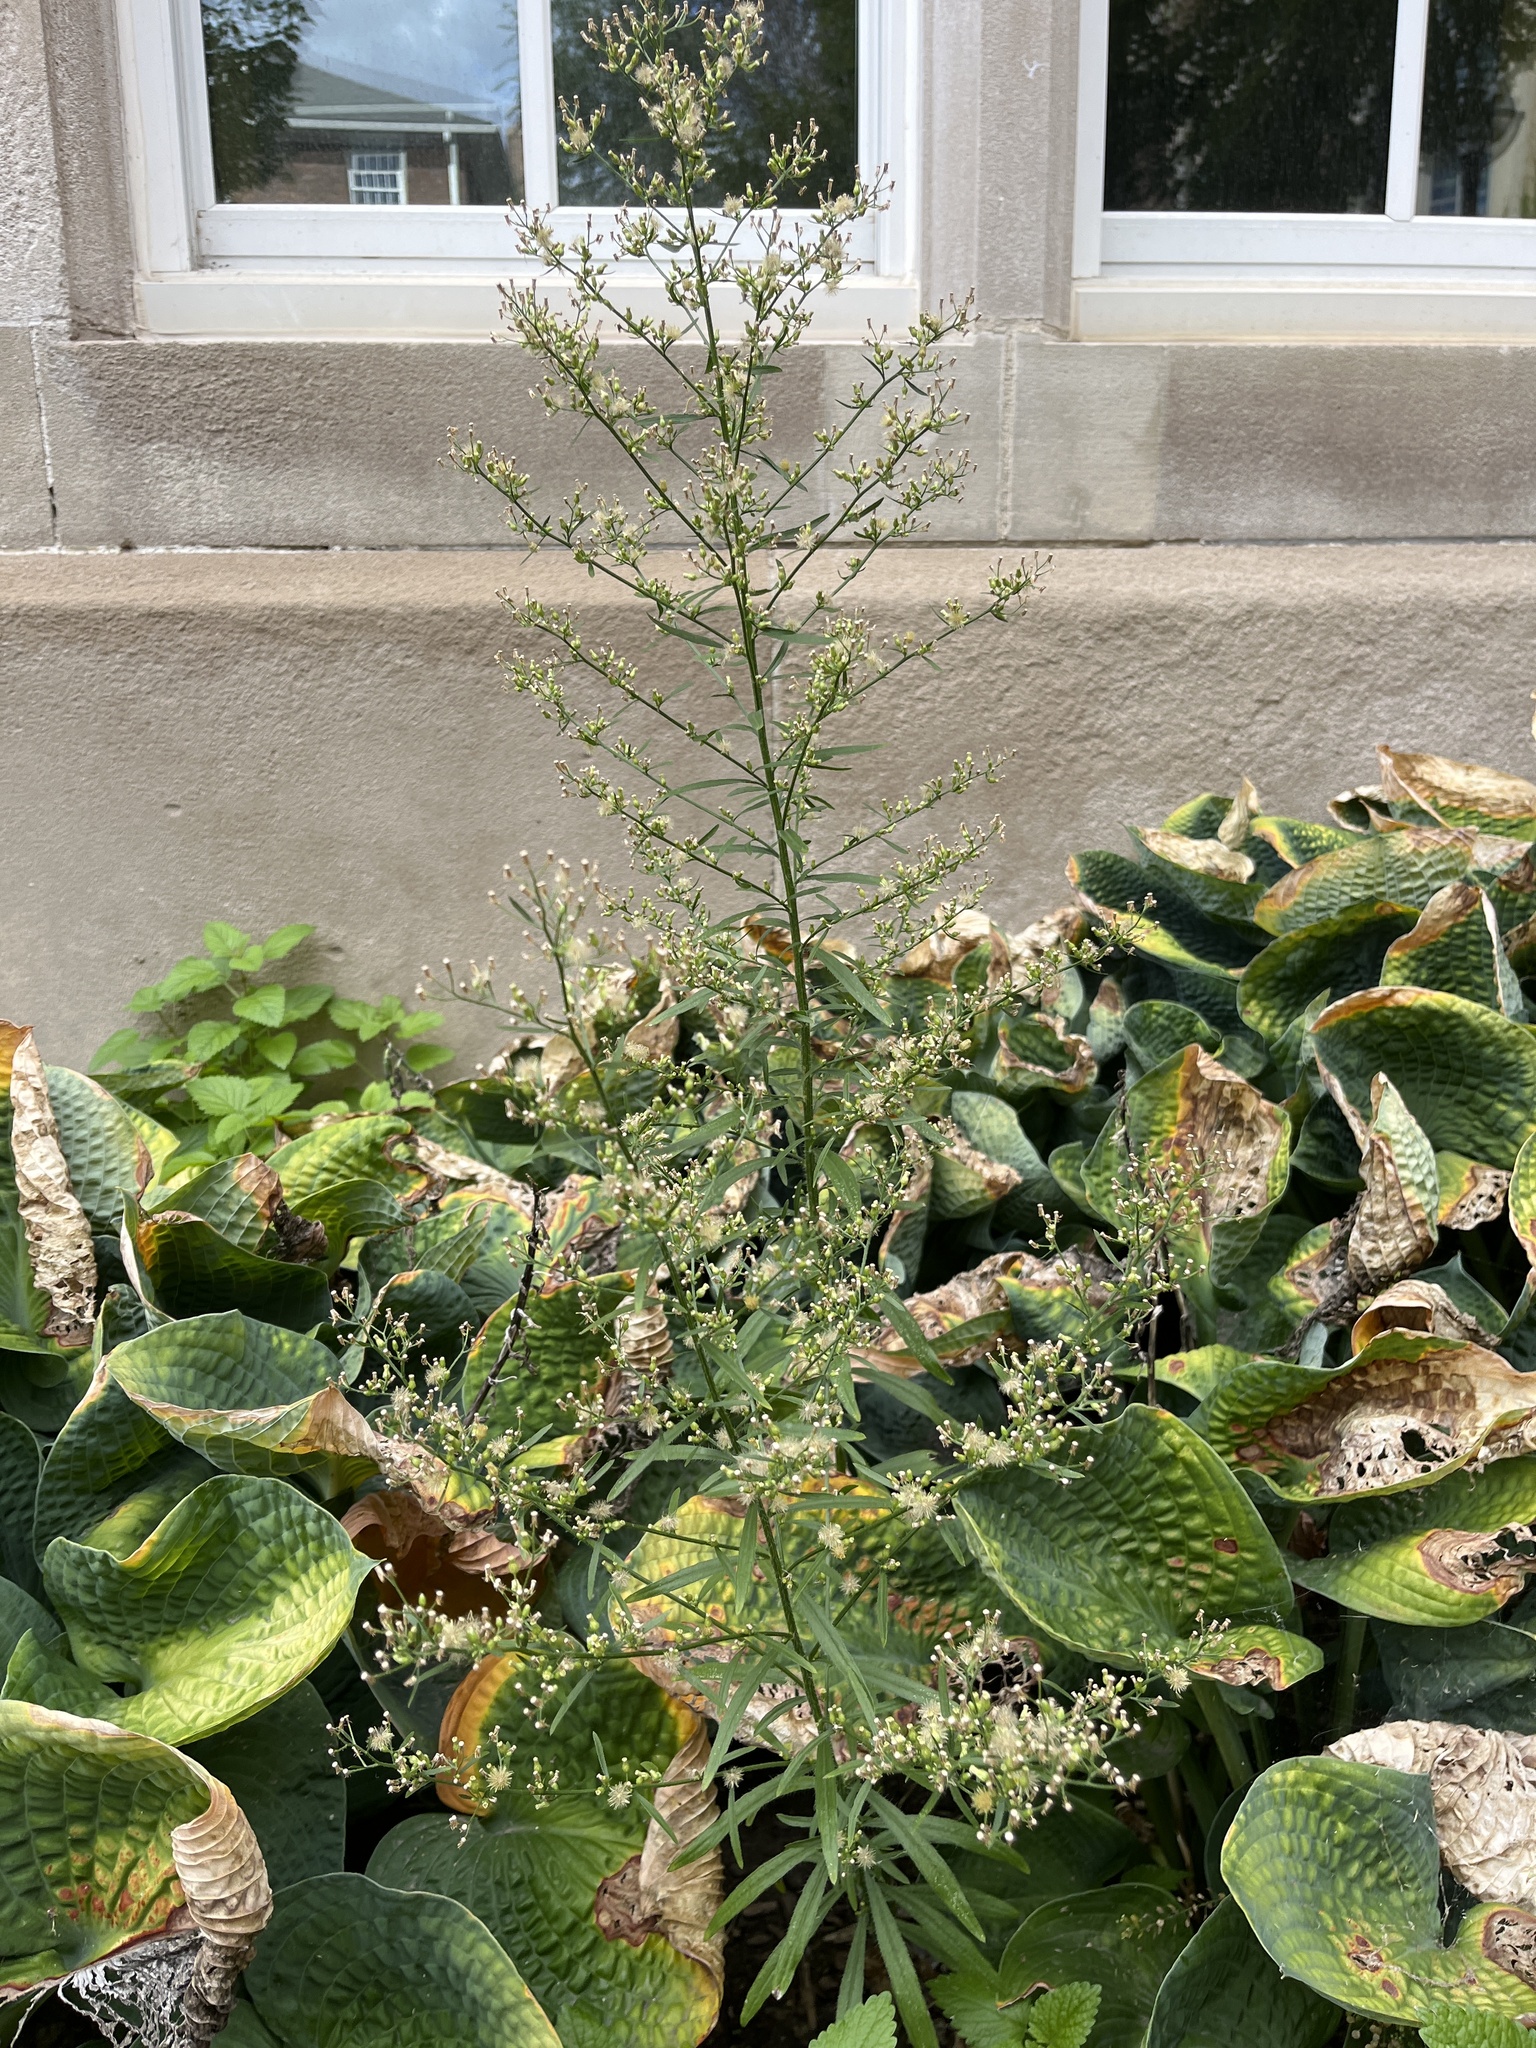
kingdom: Plantae
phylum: Tracheophyta
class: Magnoliopsida
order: Asterales
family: Asteraceae
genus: Erigeron
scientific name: Erigeron canadensis
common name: Canadian fleabane
